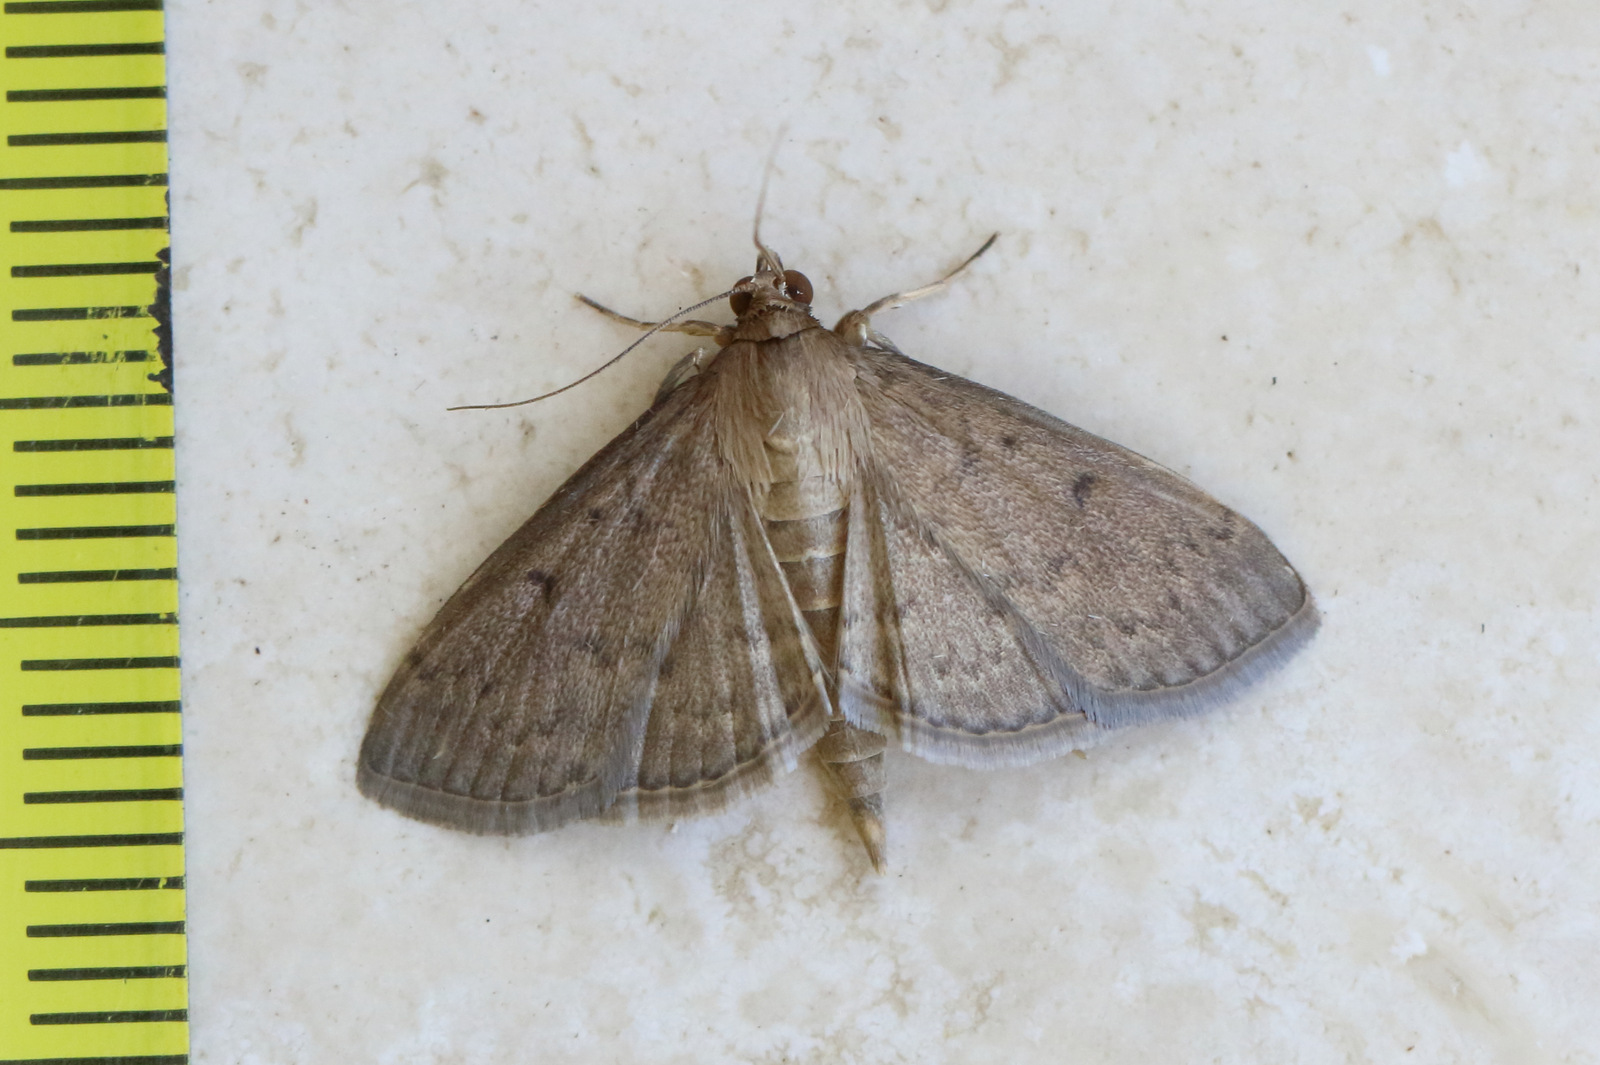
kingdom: Animalia
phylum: Arthropoda
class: Insecta
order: Lepidoptera
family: Crambidae
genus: Herpetogramma
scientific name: Herpetogramma licarsisalis
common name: Grass webworm
